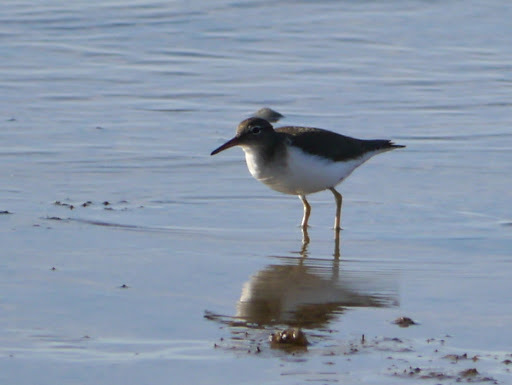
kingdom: Animalia
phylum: Chordata
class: Aves
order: Charadriiformes
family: Scolopacidae
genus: Actitis
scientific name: Actitis macularius
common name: Spotted sandpiper
